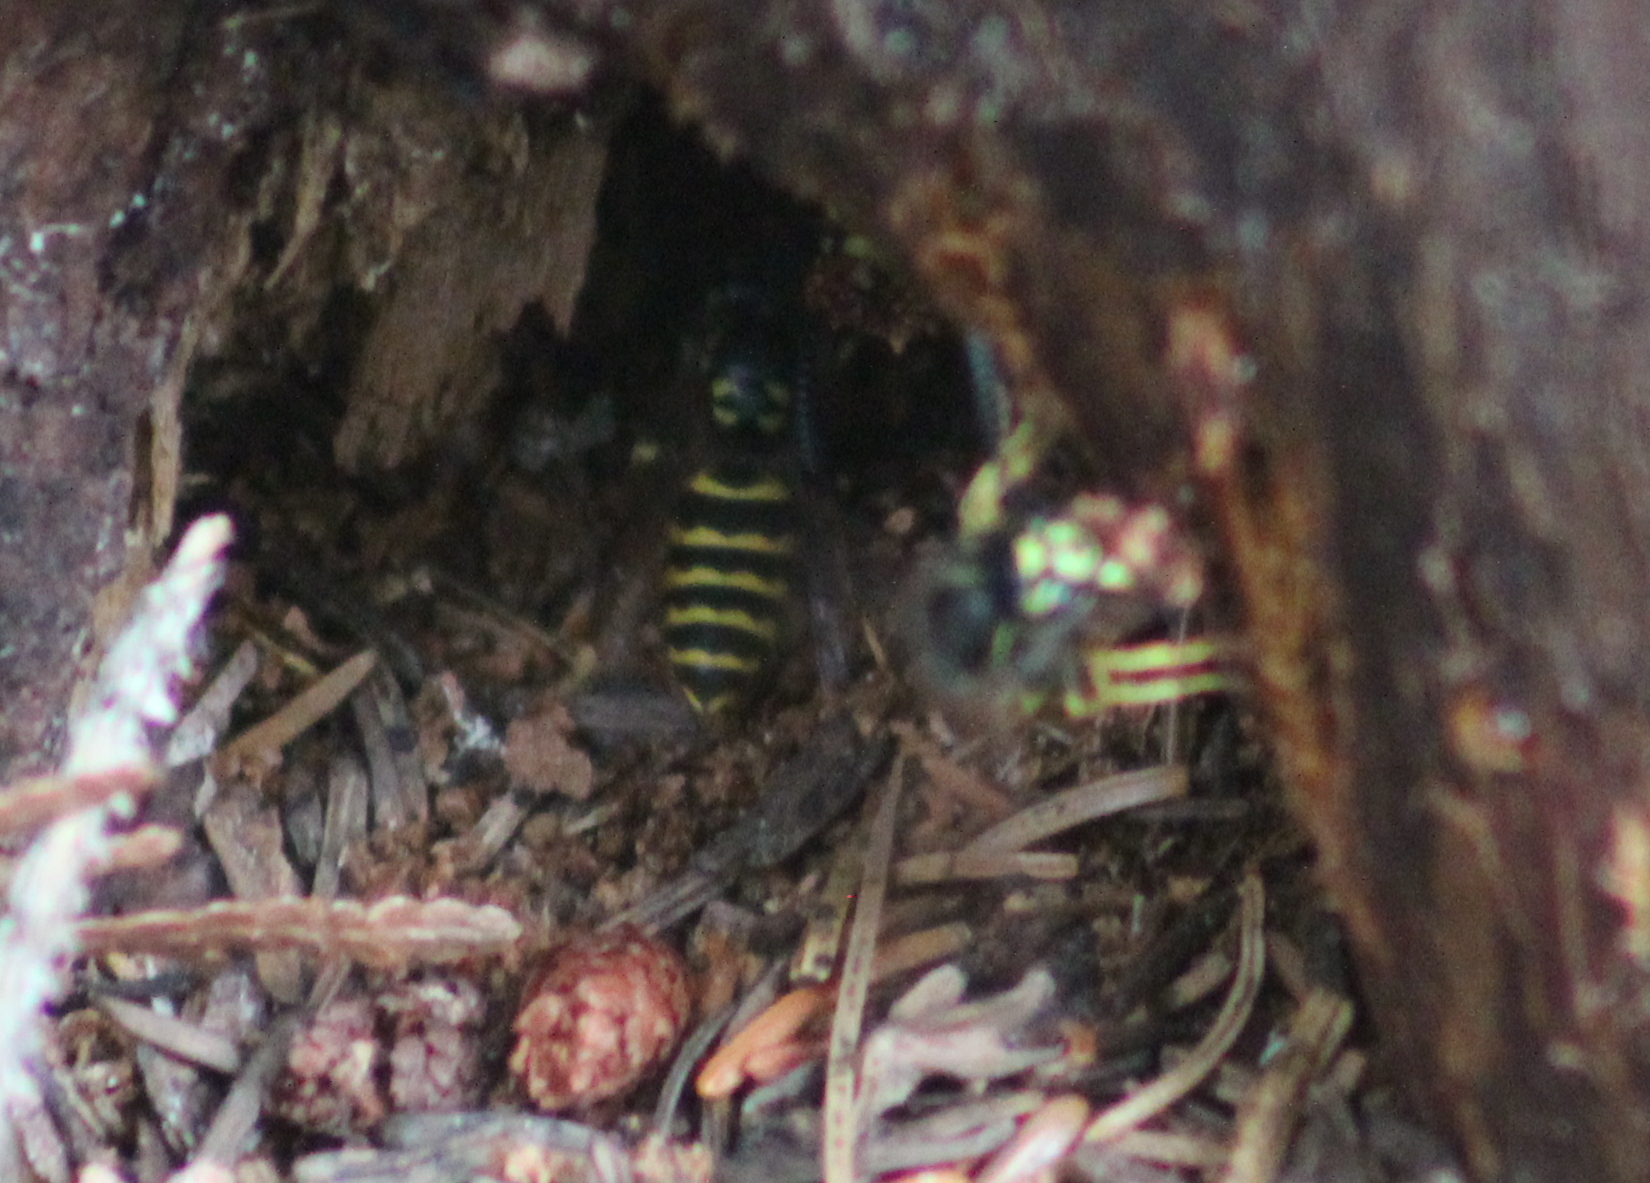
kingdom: Animalia
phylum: Arthropoda
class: Insecta
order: Hymenoptera
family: Vespidae
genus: Vespula
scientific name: Vespula alascensis
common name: Alaska yellowjacket
